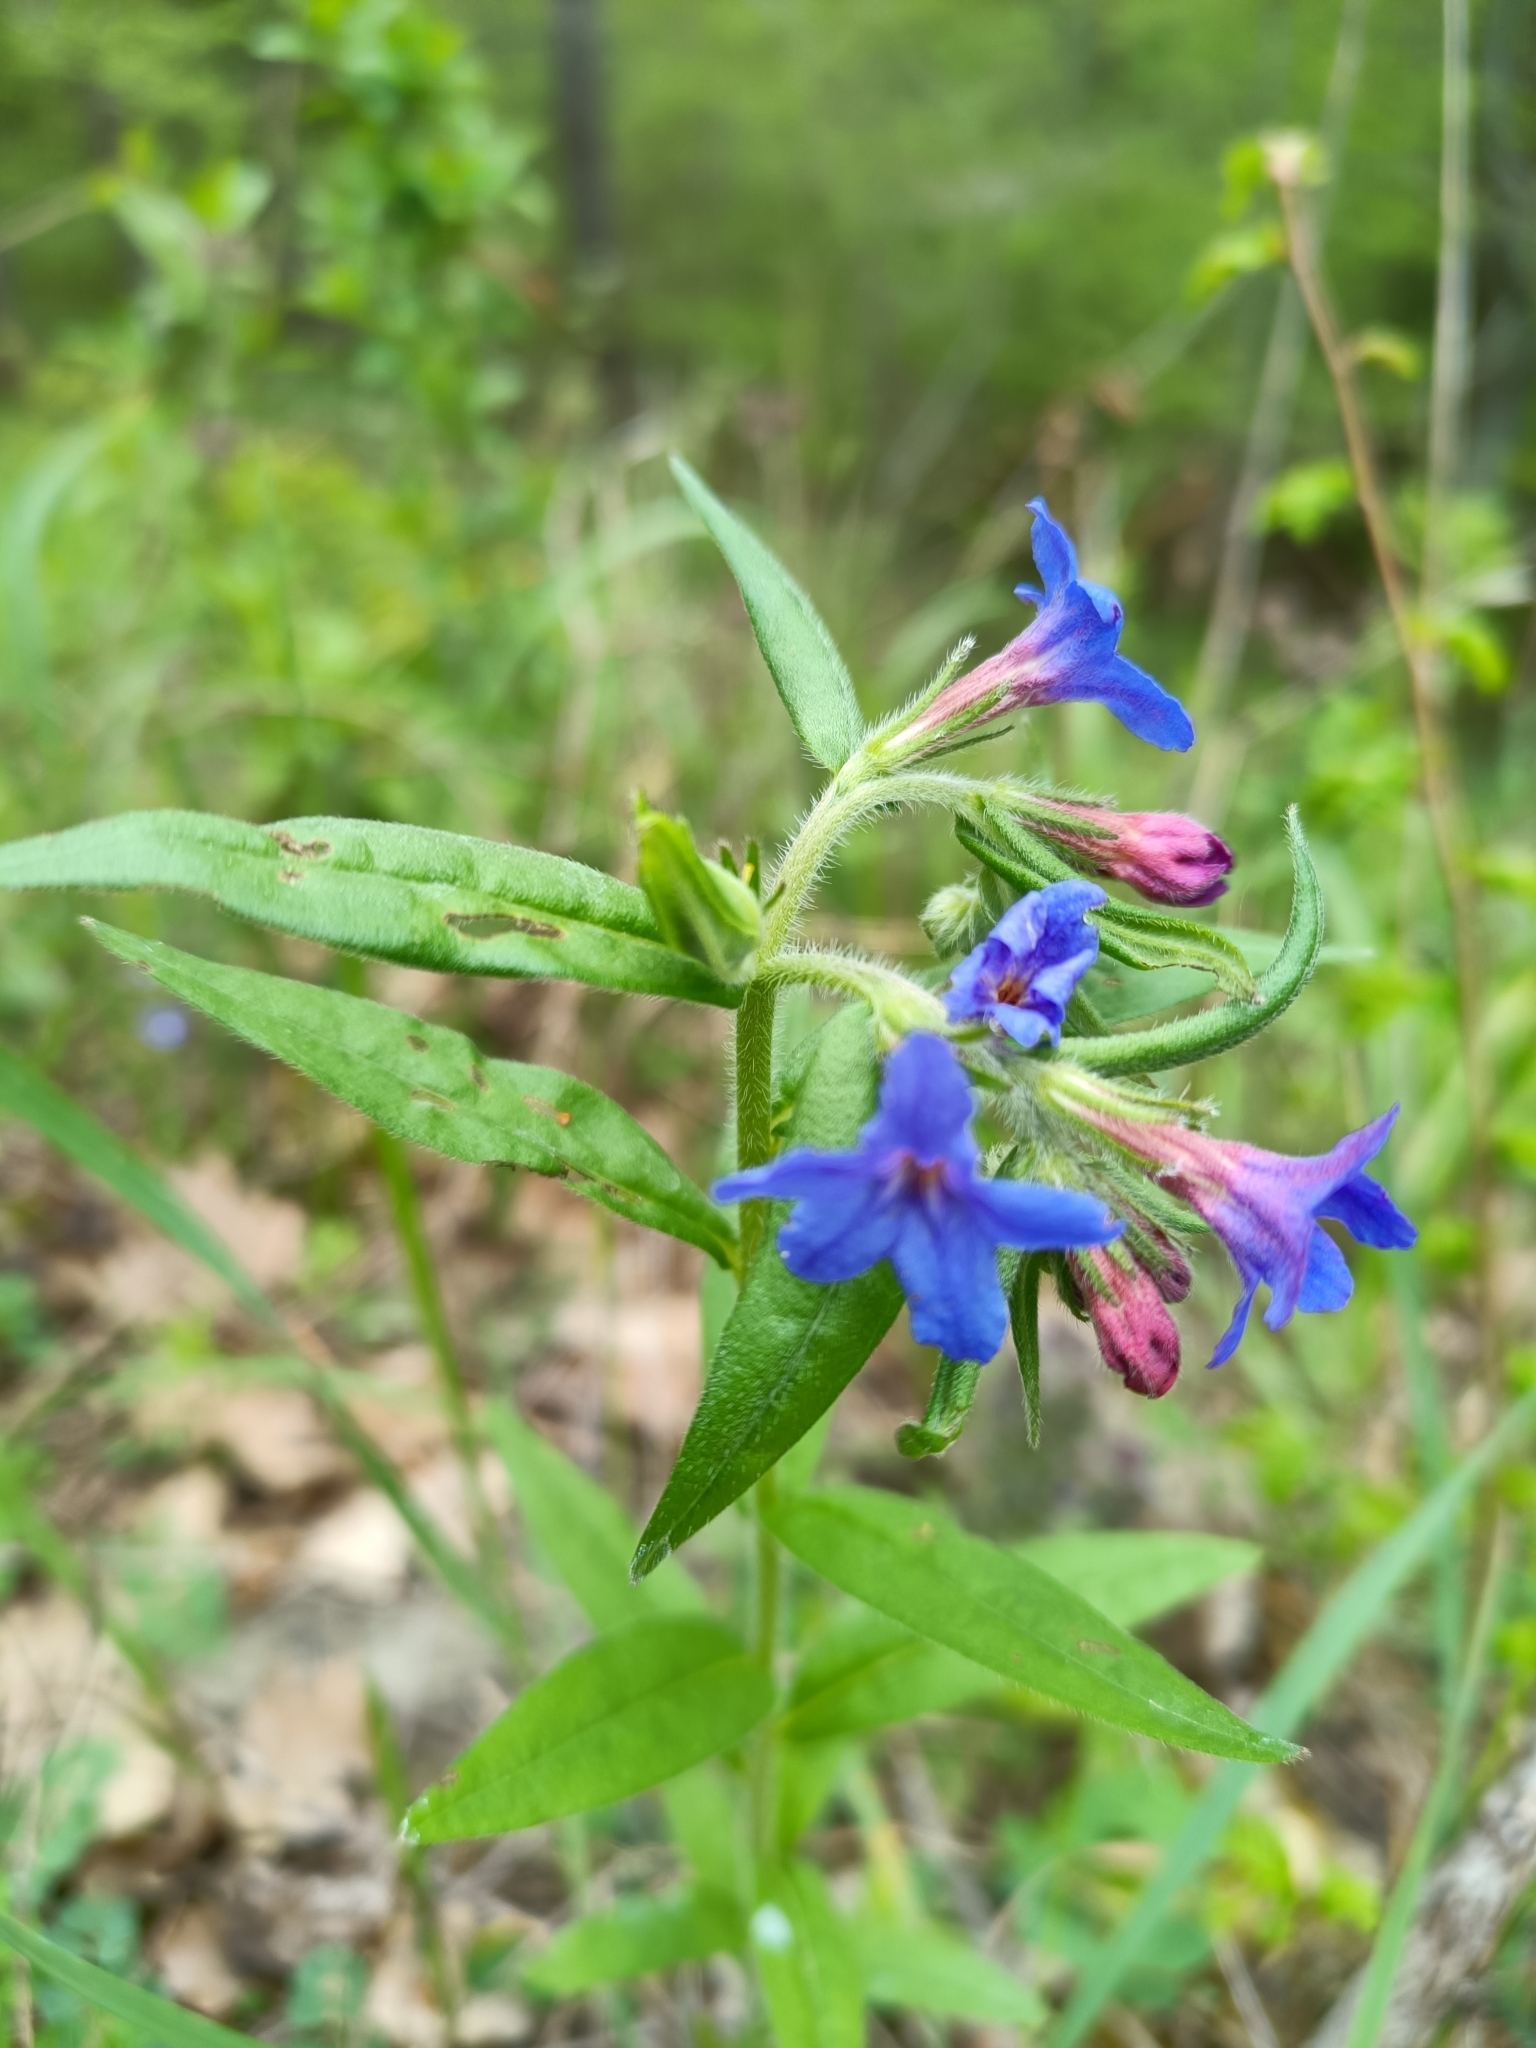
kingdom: Plantae
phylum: Tracheophyta
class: Magnoliopsida
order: Boraginales
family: Boraginaceae
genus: Aegonychon
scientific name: Aegonychon purpurocaeruleum
